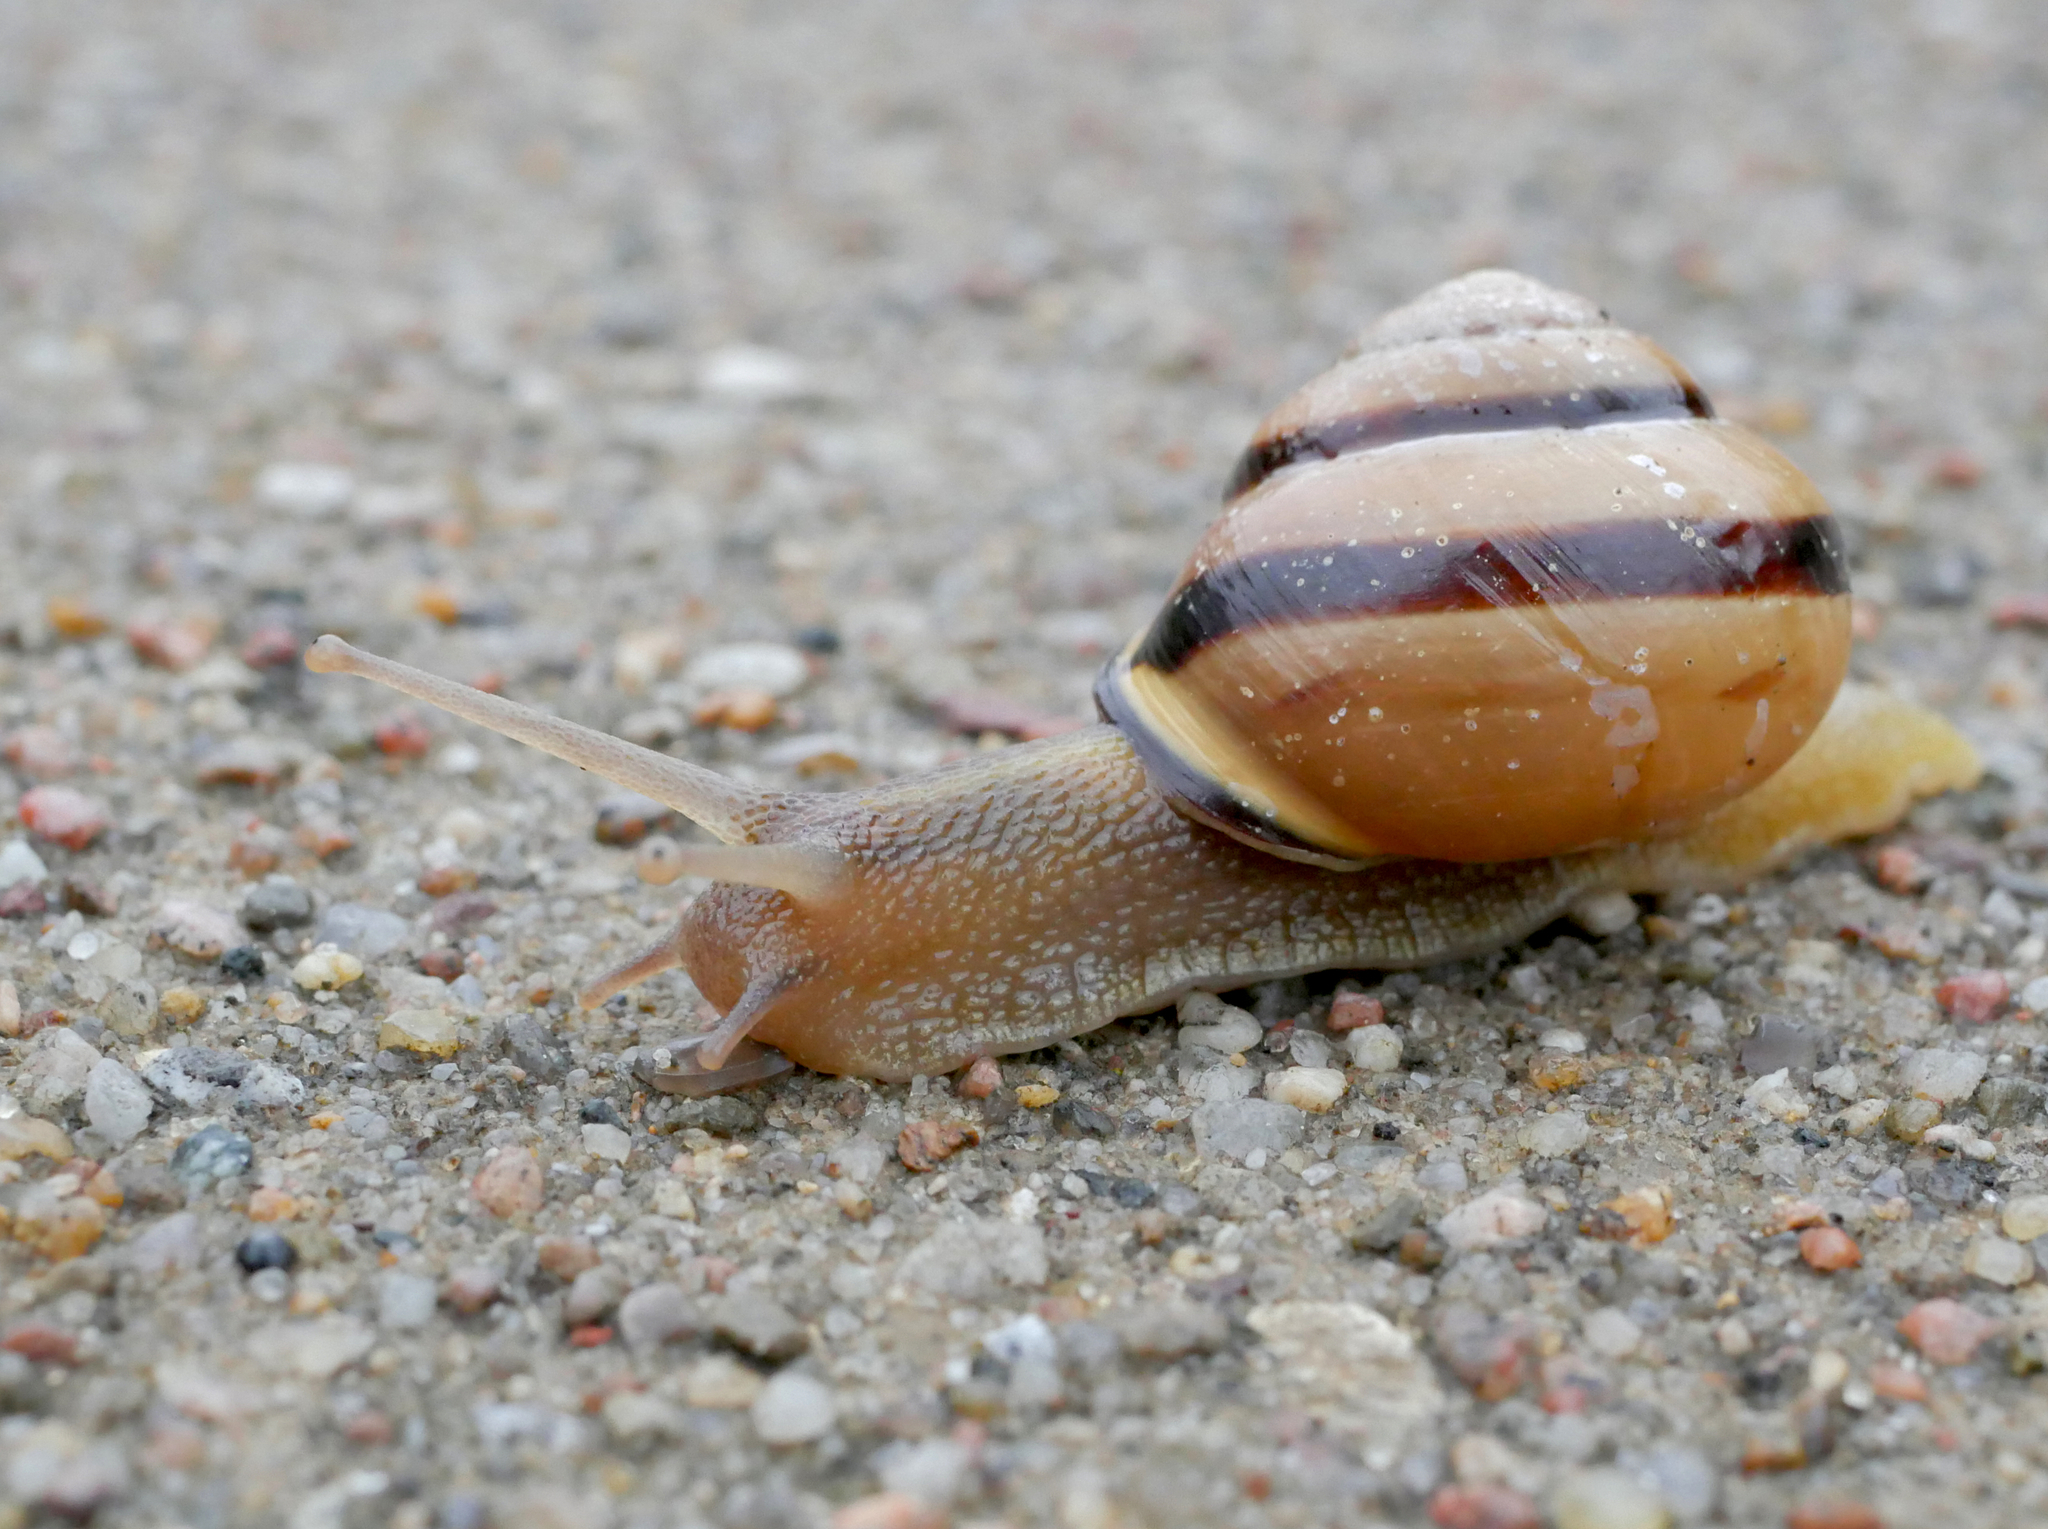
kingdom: Animalia
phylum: Mollusca
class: Gastropoda
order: Stylommatophora
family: Helicidae
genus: Cepaea
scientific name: Cepaea nemoralis
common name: Grovesnail
